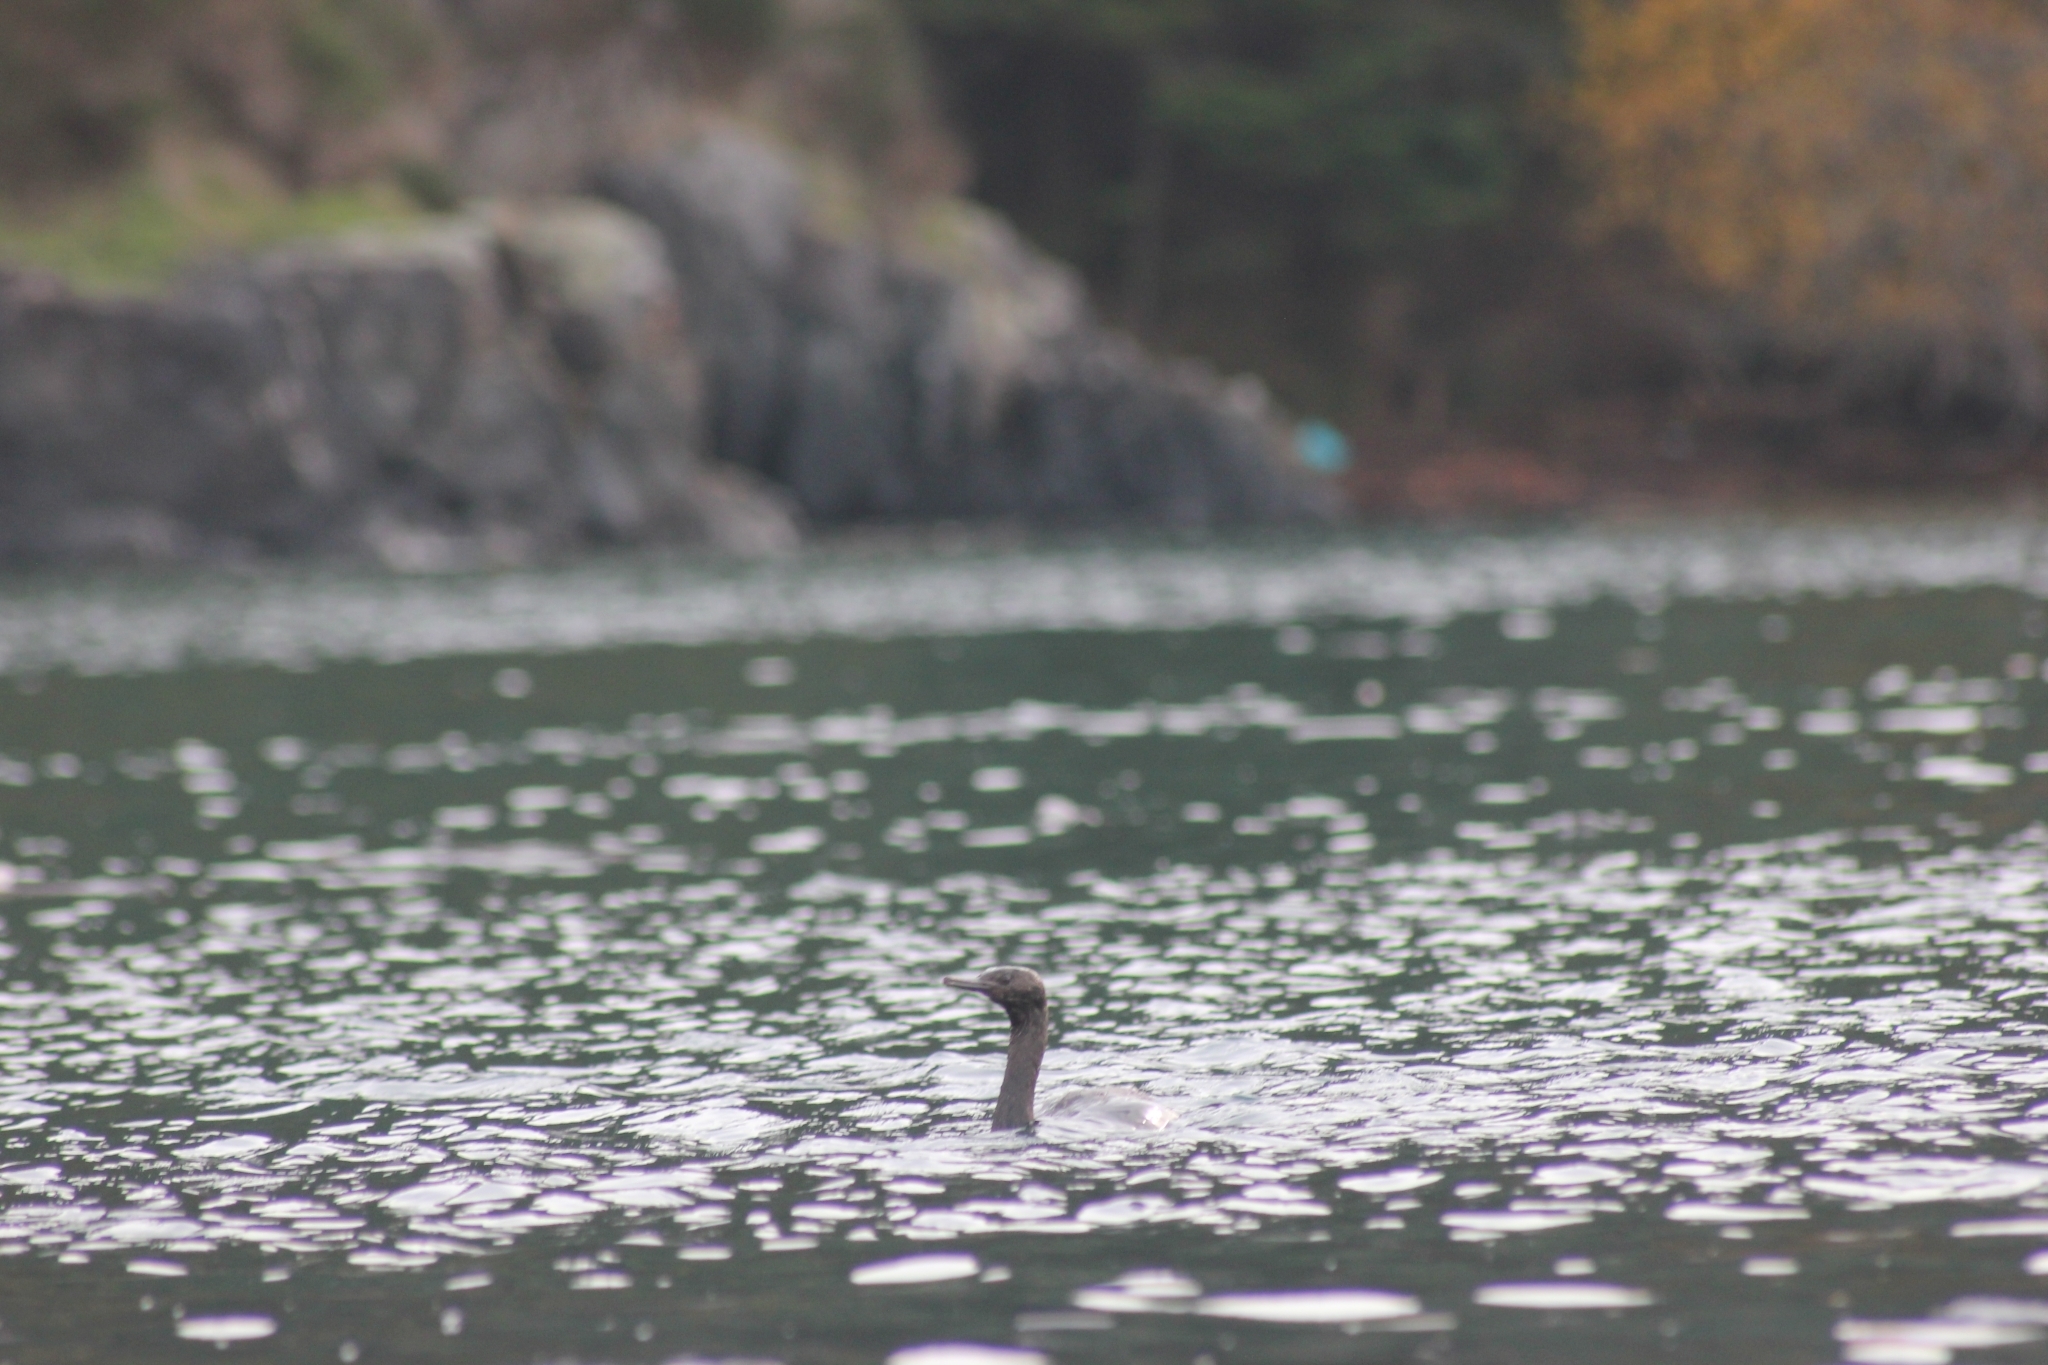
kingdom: Animalia
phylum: Chordata
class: Aves
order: Suliformes
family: Phalacrocoracidae
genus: Phalacrocorax
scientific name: Phalacrocorax pelagicus
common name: Pelagic cormorant
